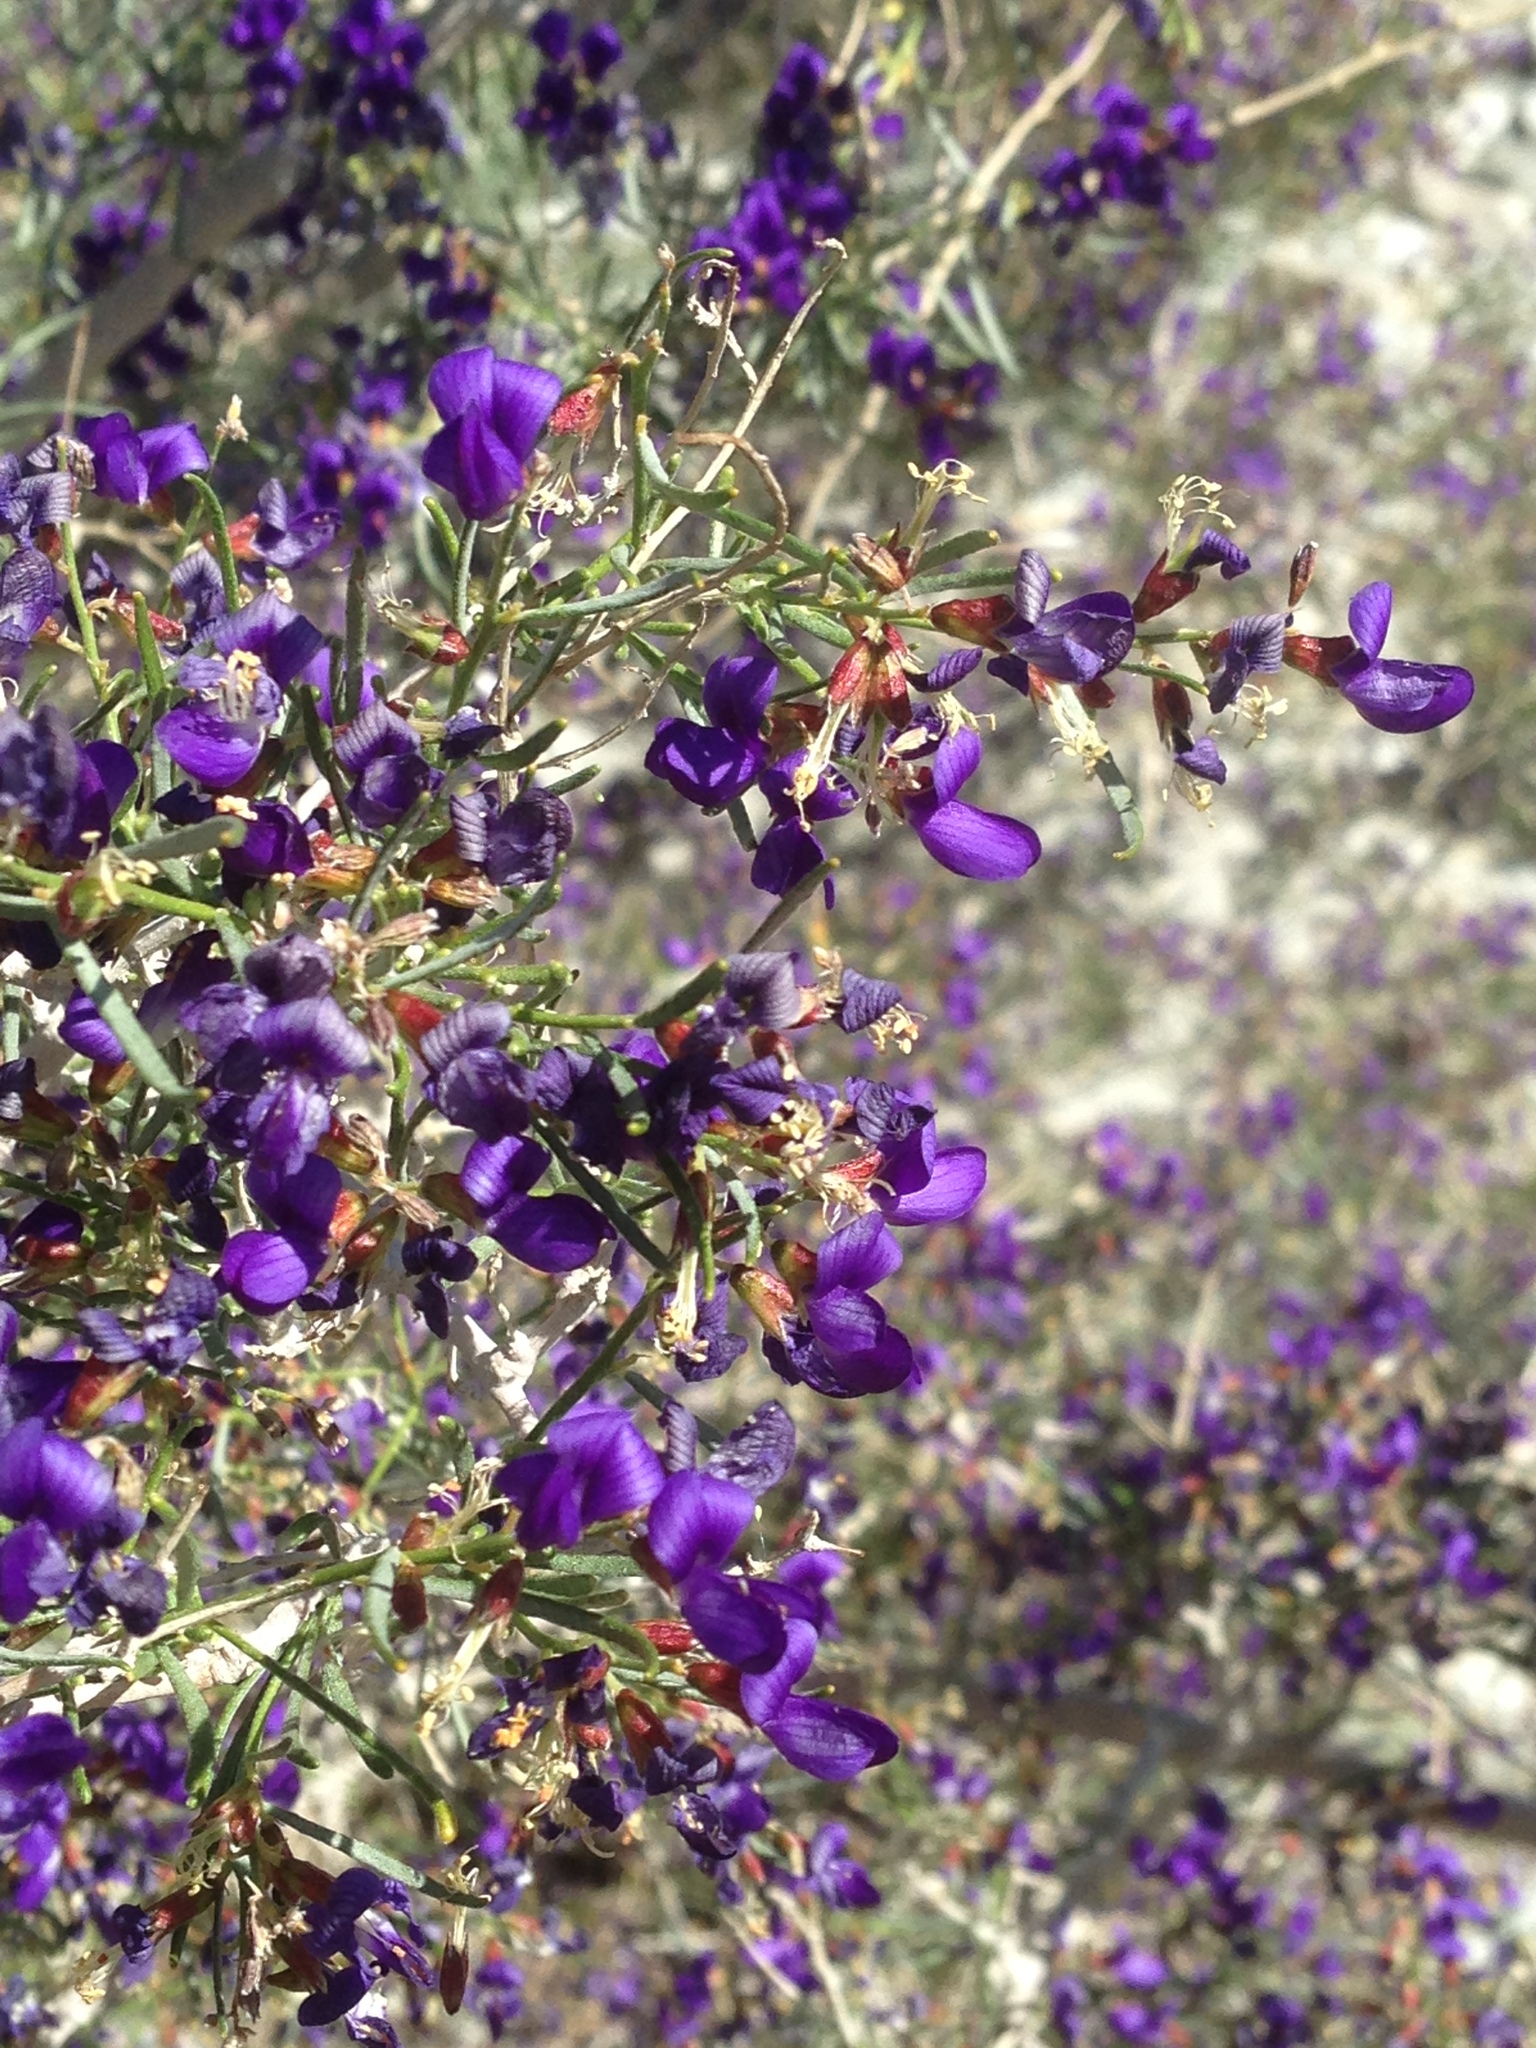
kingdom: Plantae
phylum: Tracheophyta
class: Magnoliopsida
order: Fabales
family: Fabaceae
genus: Psorothamnus
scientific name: Psorothamnus schottii
